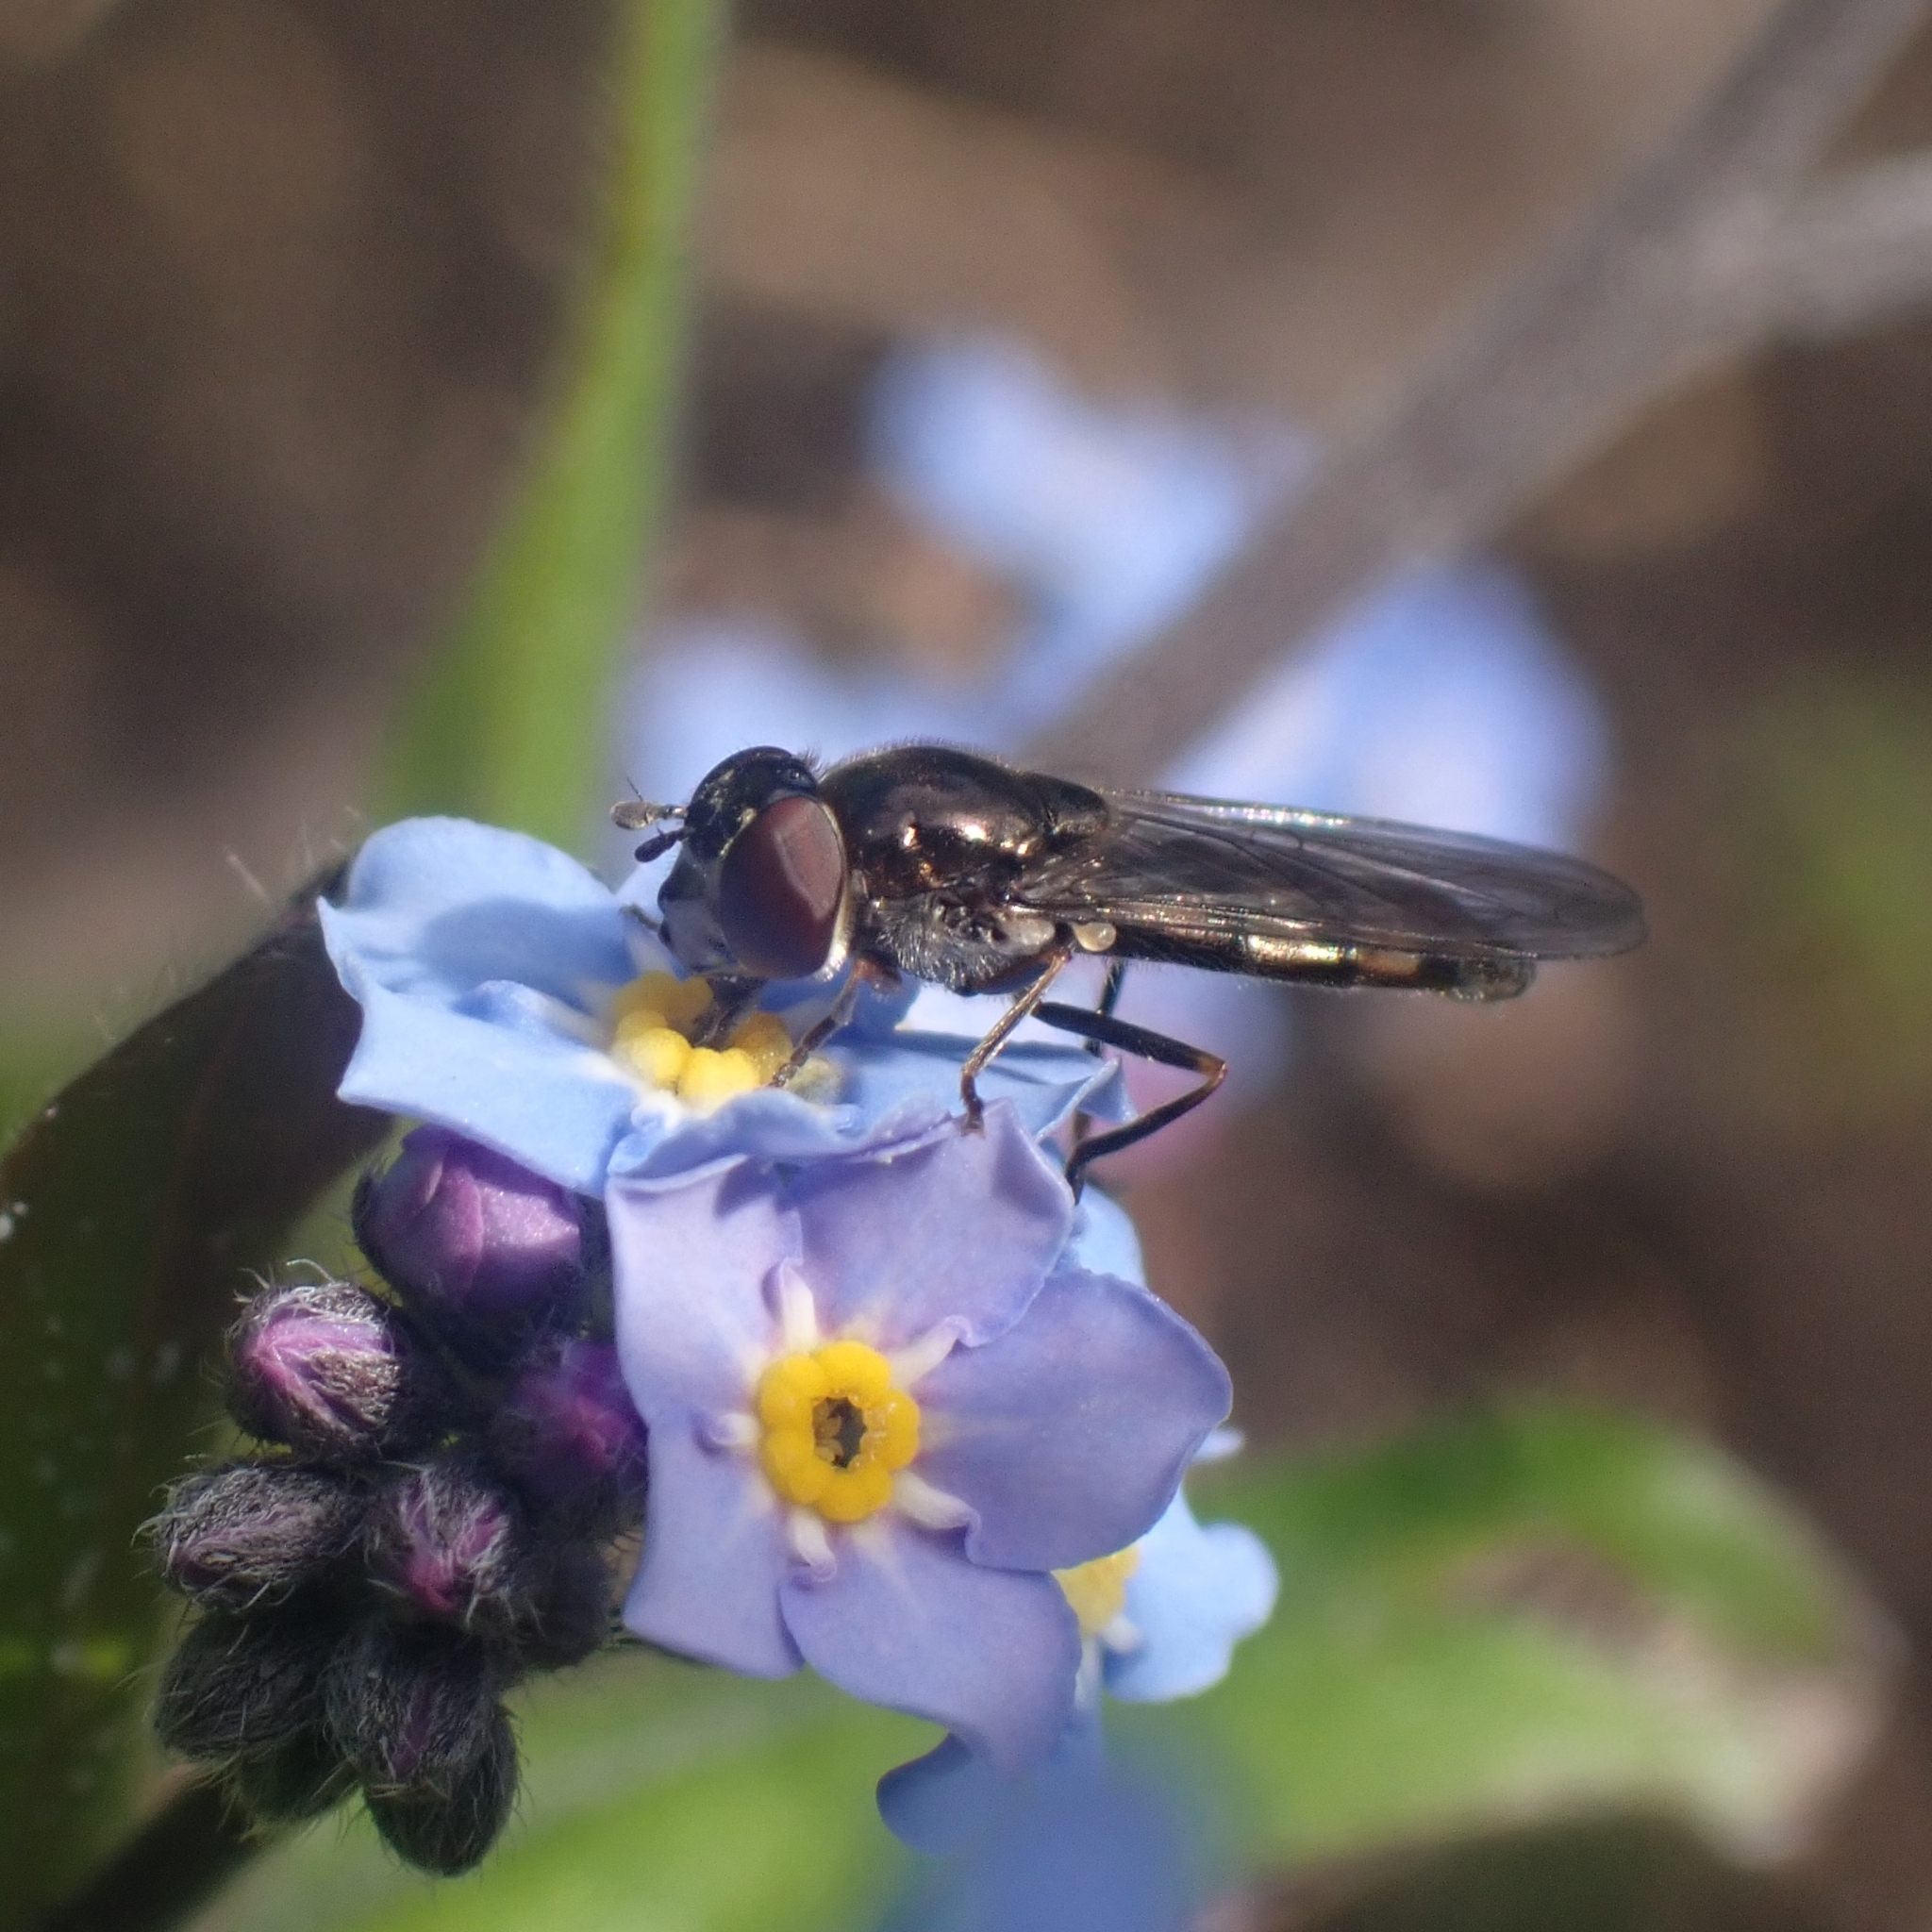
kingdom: Animalia
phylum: Arthropoda
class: Insecta
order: Diptera
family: Syrphidae
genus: Platycheirus
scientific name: Platycheirus albimanus
